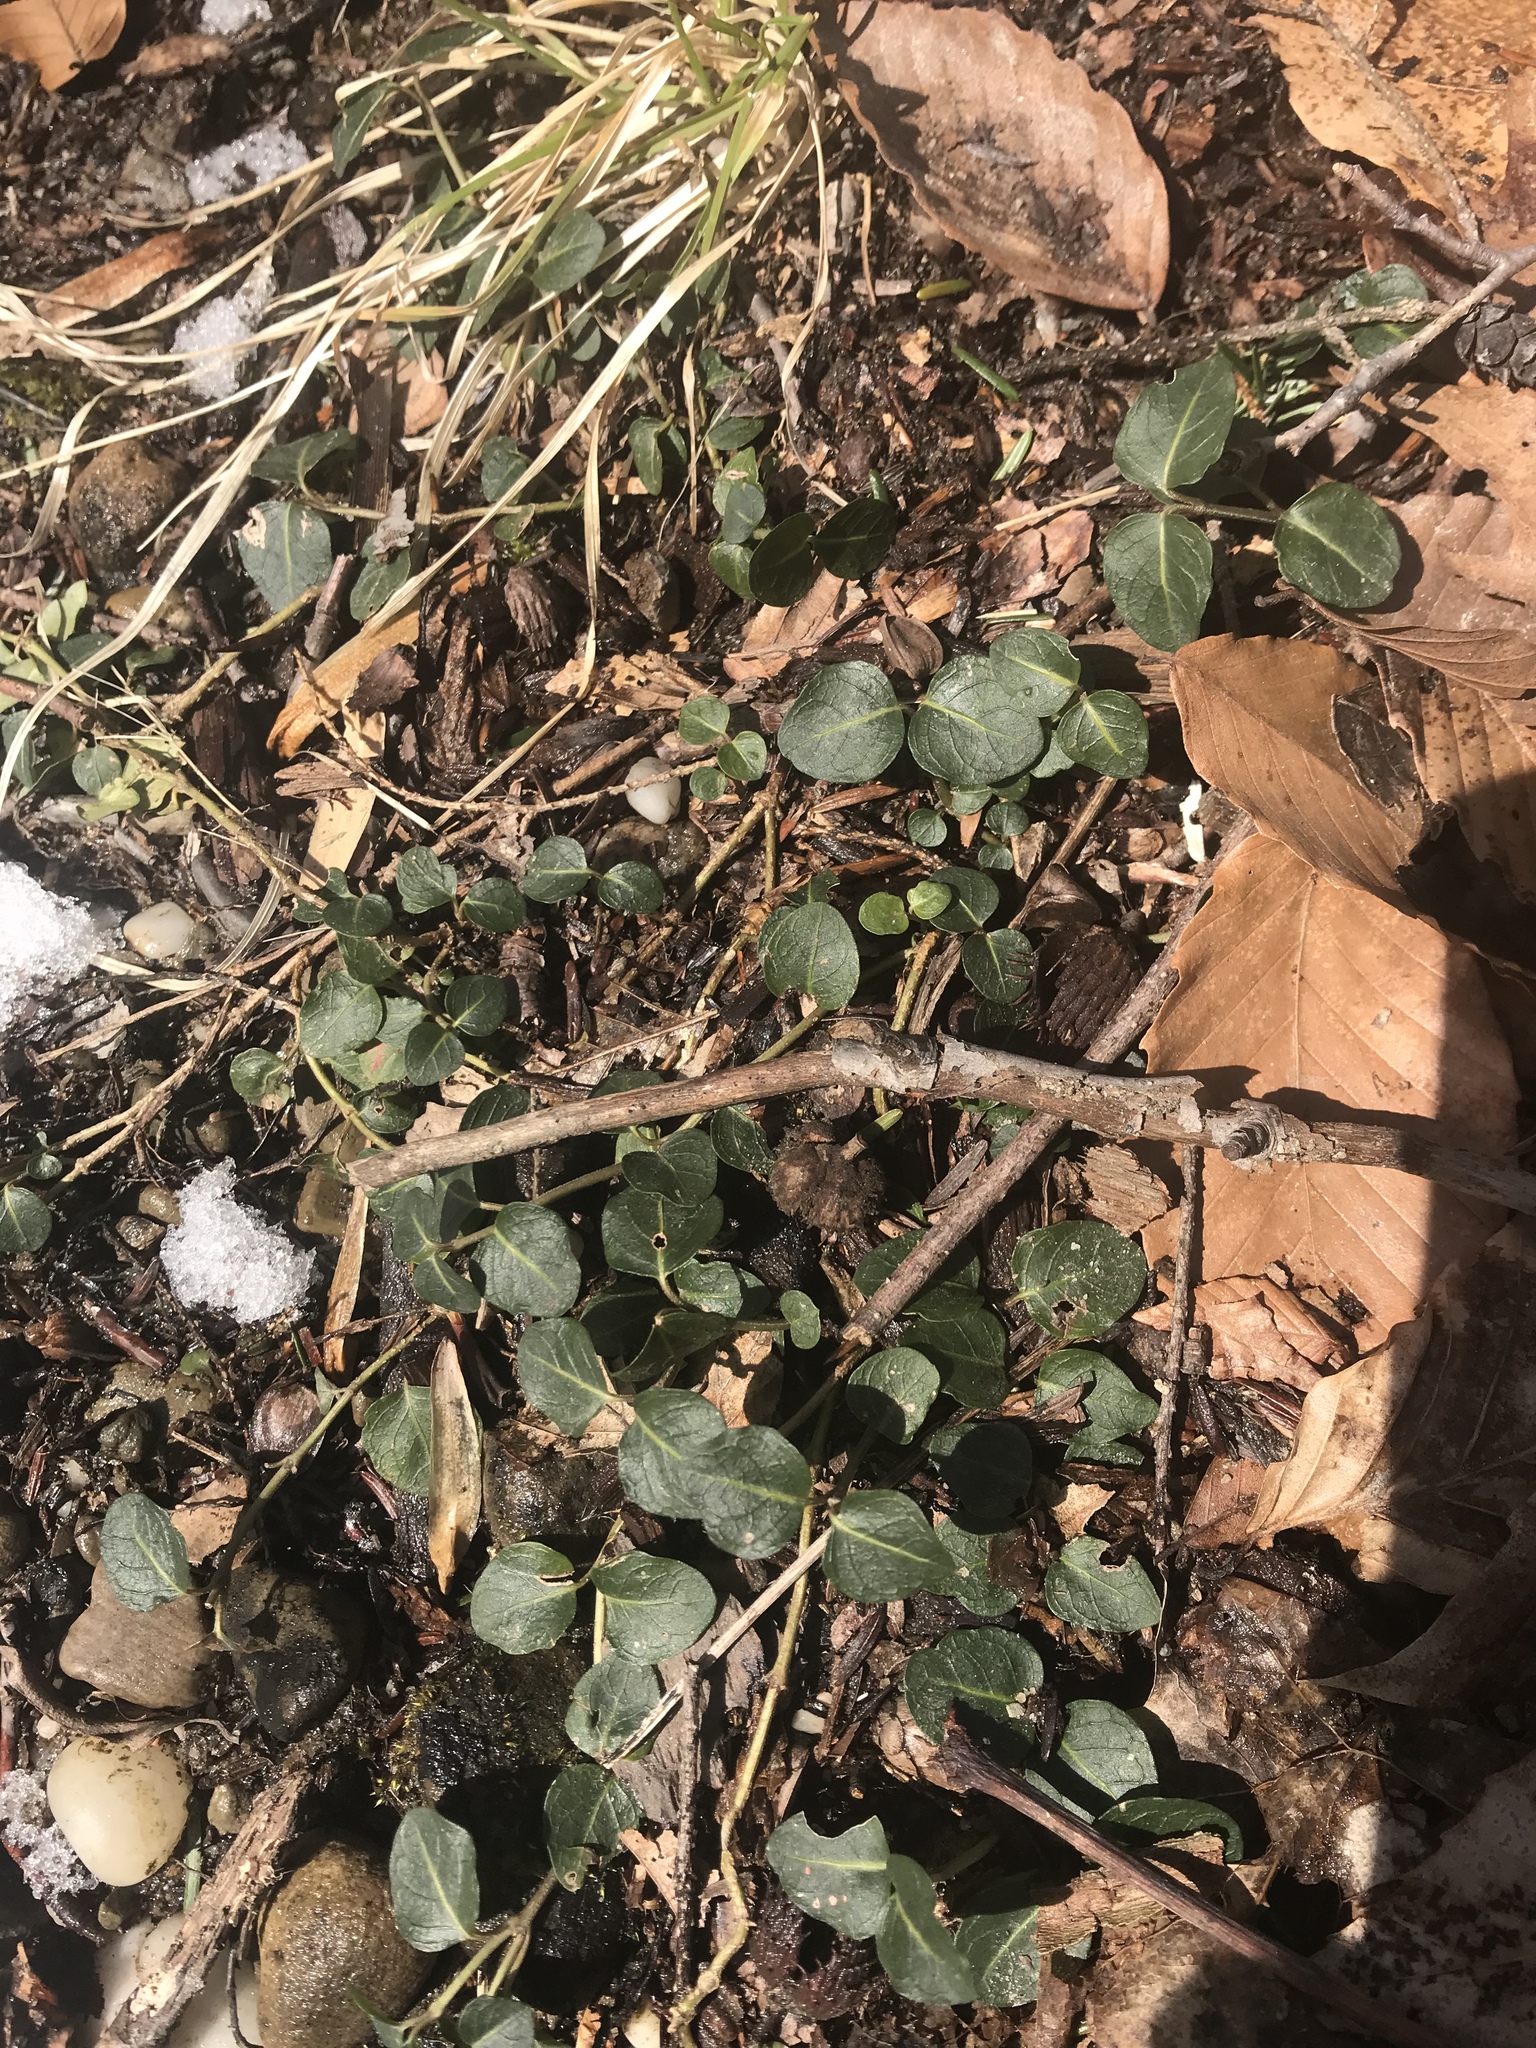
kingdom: Plantae
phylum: Tracheophyta
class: Magnoliopsida
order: Gentianales
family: Rubiaceae
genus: Mitchella
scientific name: Mitchella repens
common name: Partridge-berry
